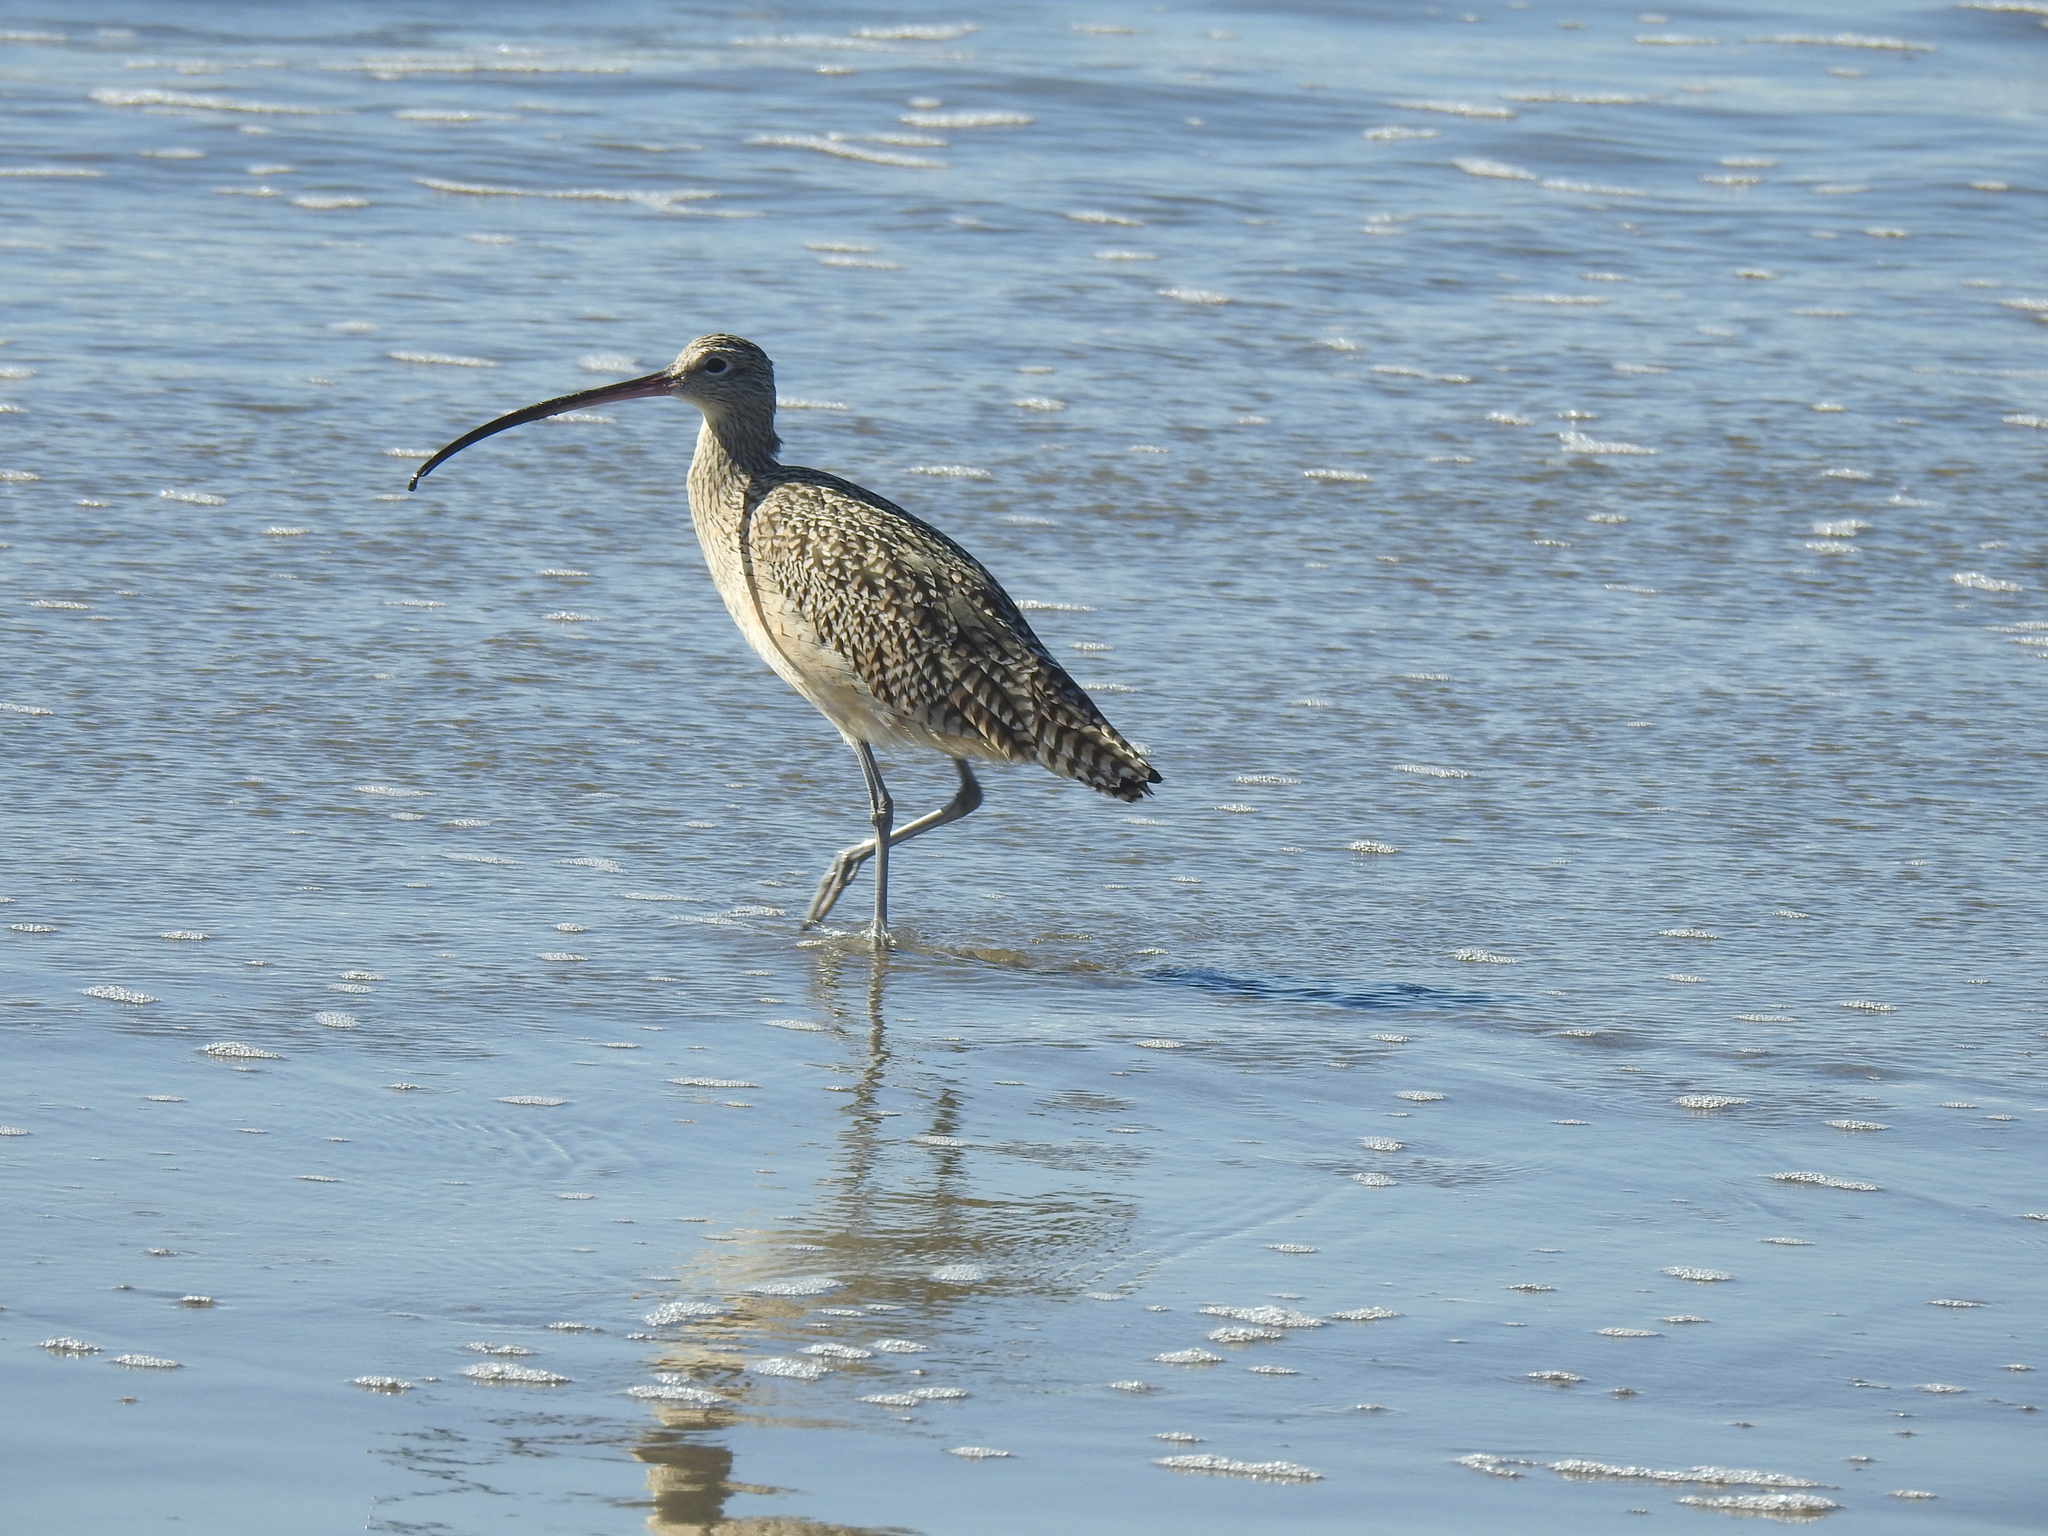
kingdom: Animalia
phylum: Chordata
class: Aves
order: Charadriiformes
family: Scolopacidae
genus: Numenius
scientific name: Numenius americanus
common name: Long-billed curlew
